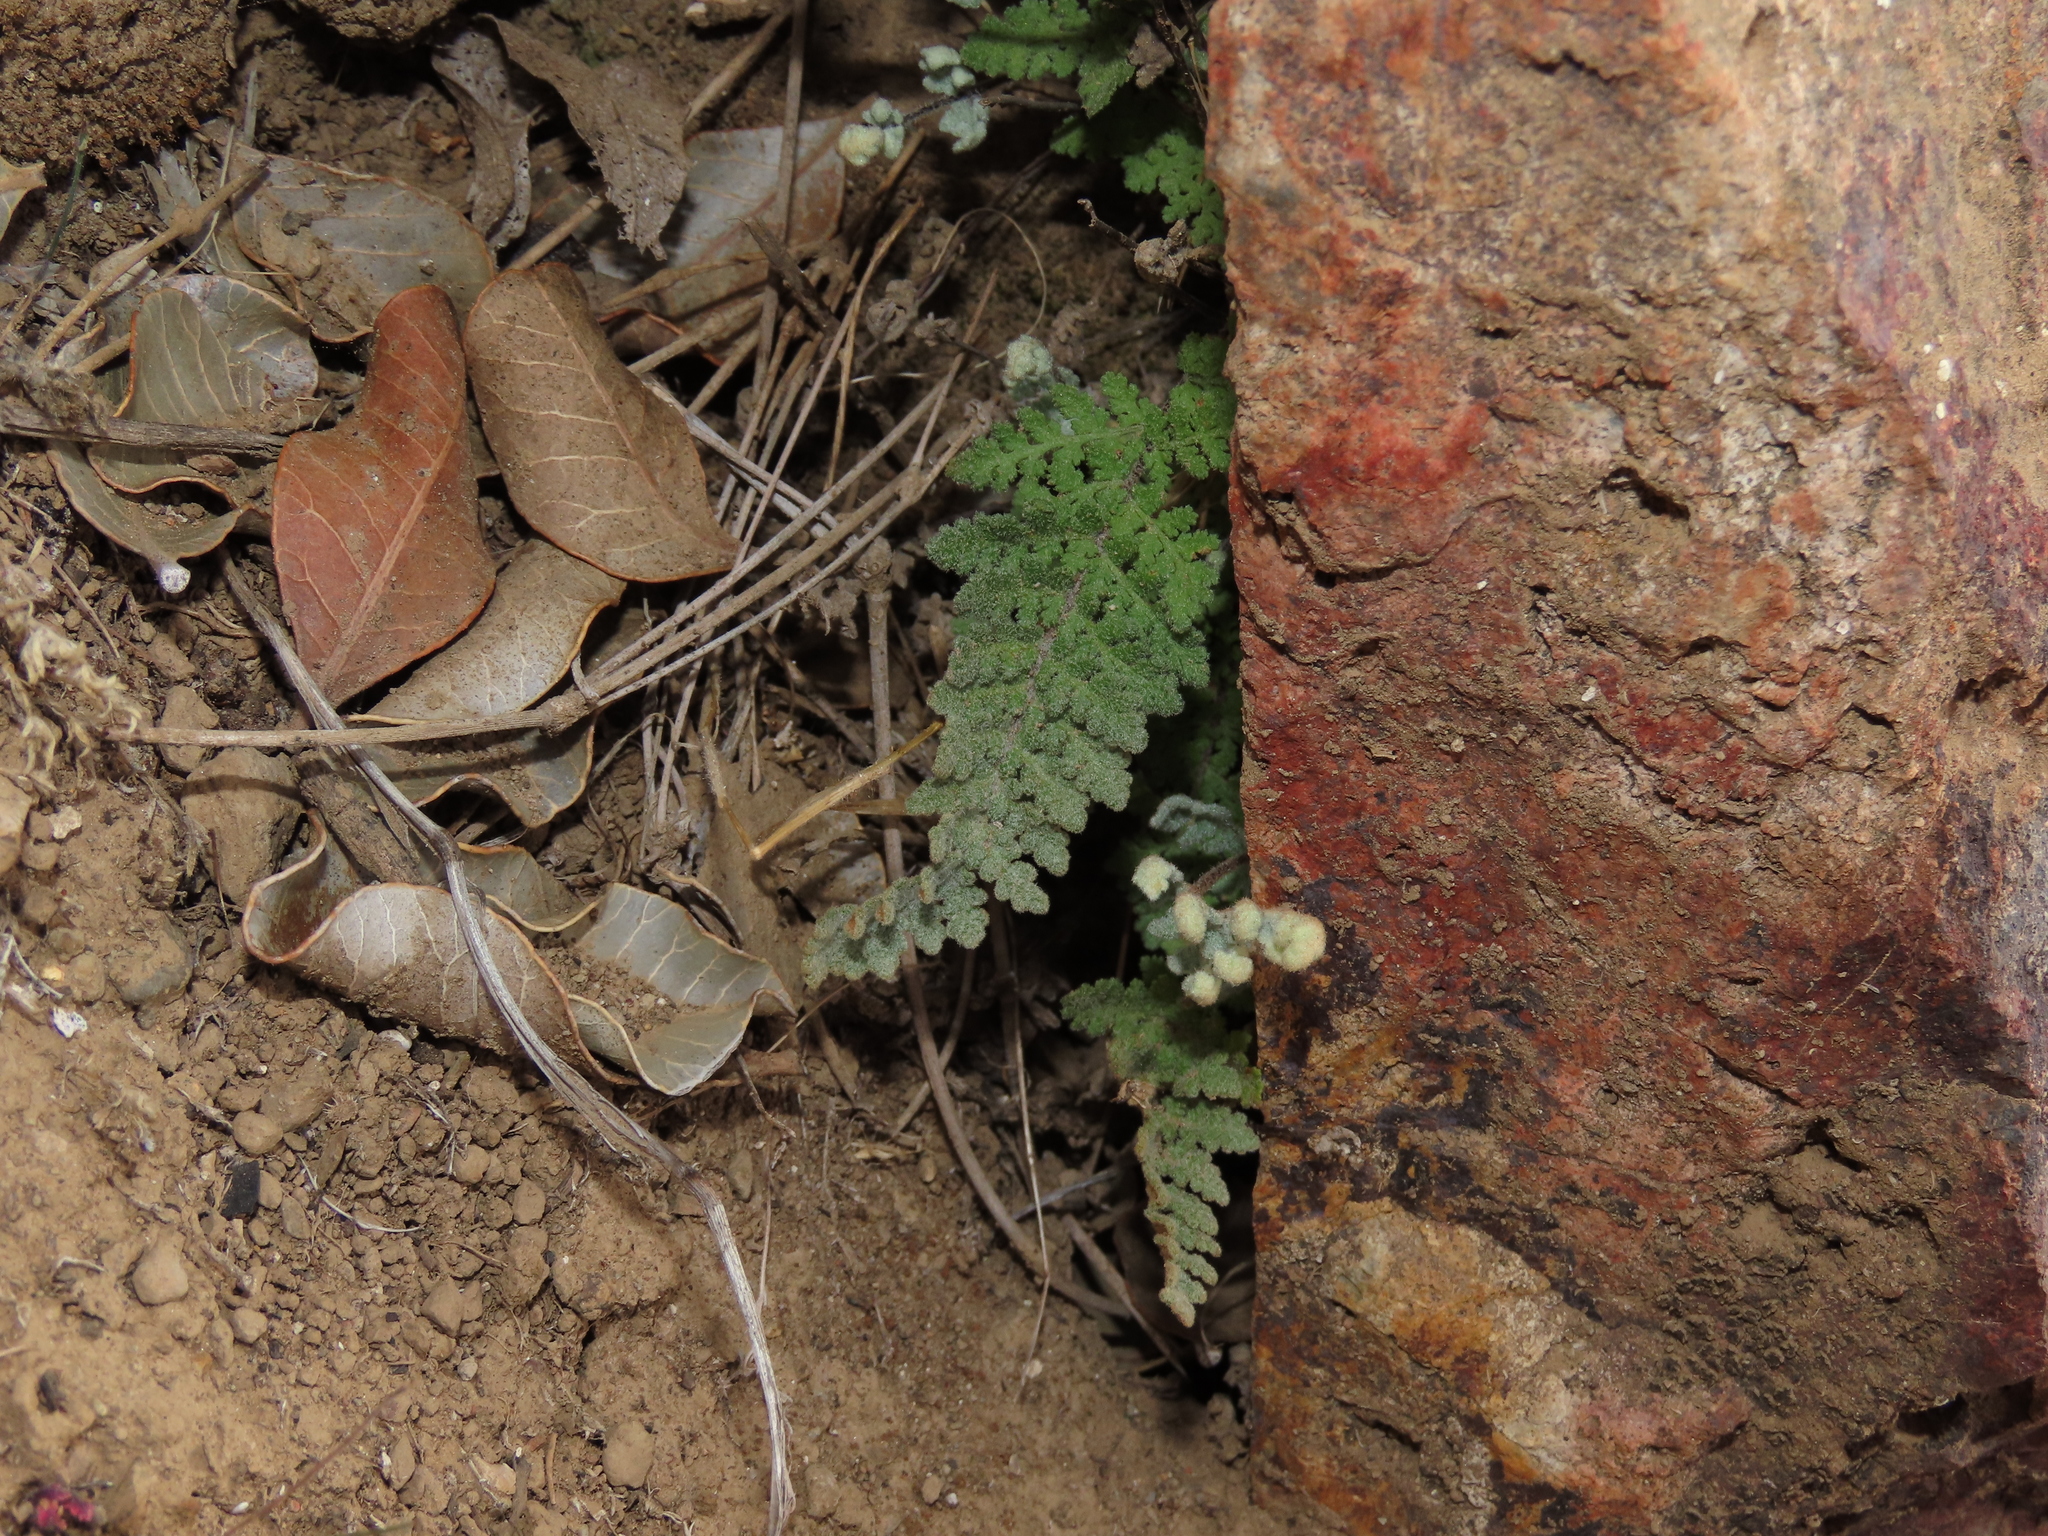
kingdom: Plantae
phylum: Tracheophyta
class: Polypodiopsida
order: Polypodiales
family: Pteridaceae
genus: Cheilanthes
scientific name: Cheilanthes mollis
